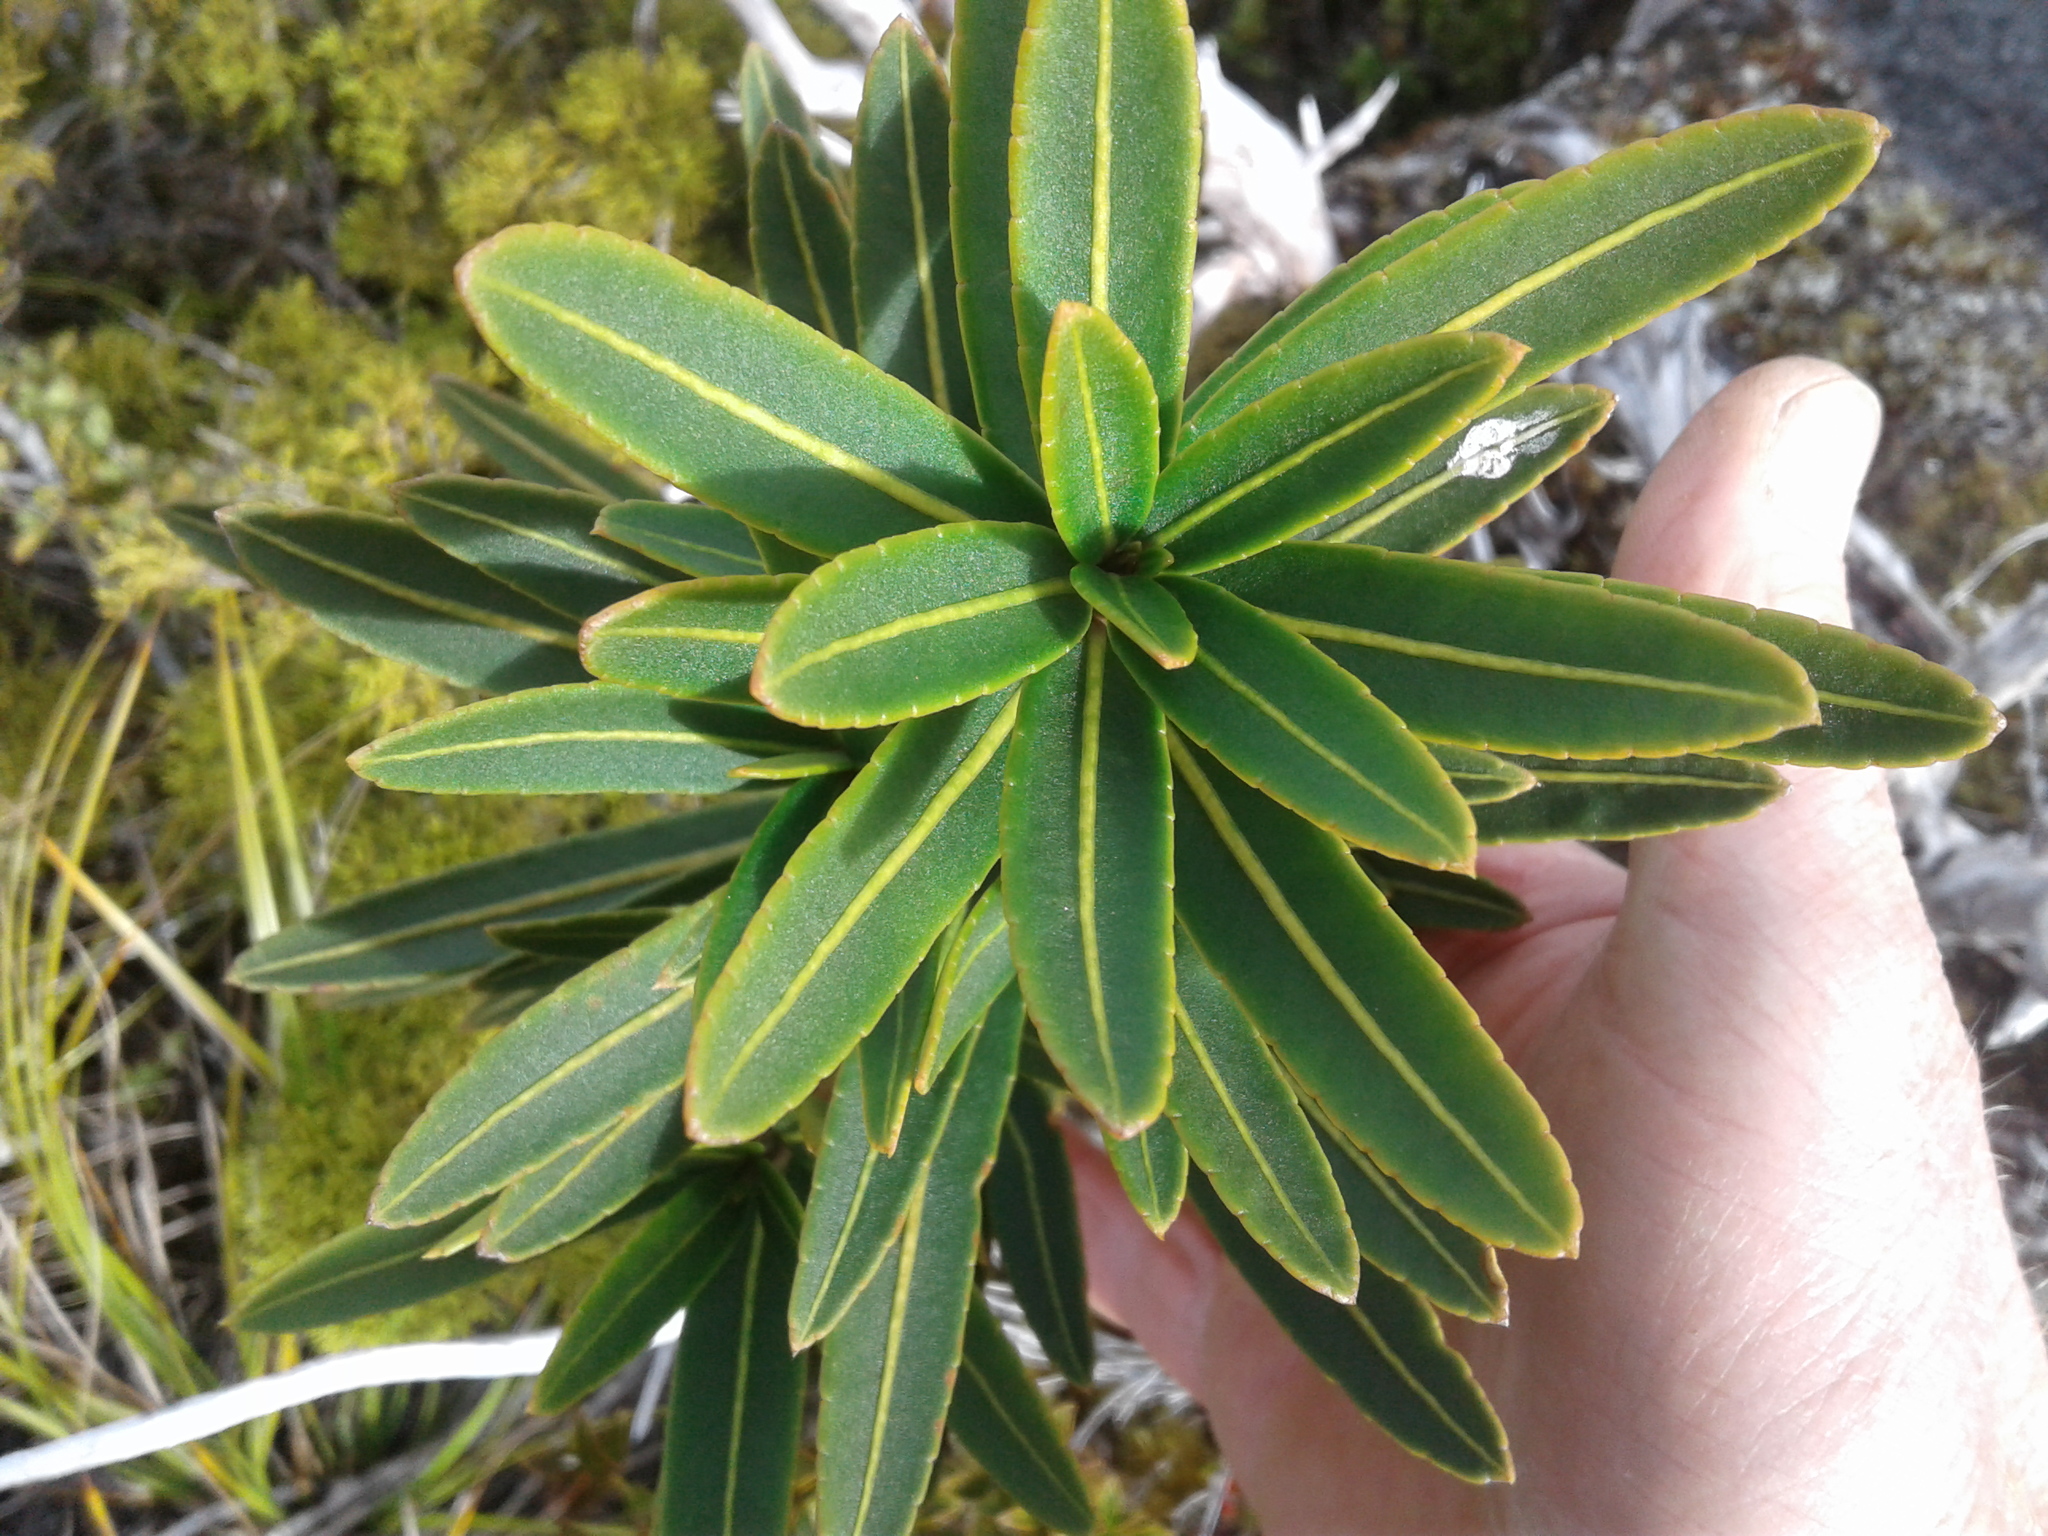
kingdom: Plantae
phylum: Tracheophyta
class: Magnoliopsida
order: Apiales
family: Araliaceae
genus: Pseudopanax
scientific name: Pseudopanax linearis
